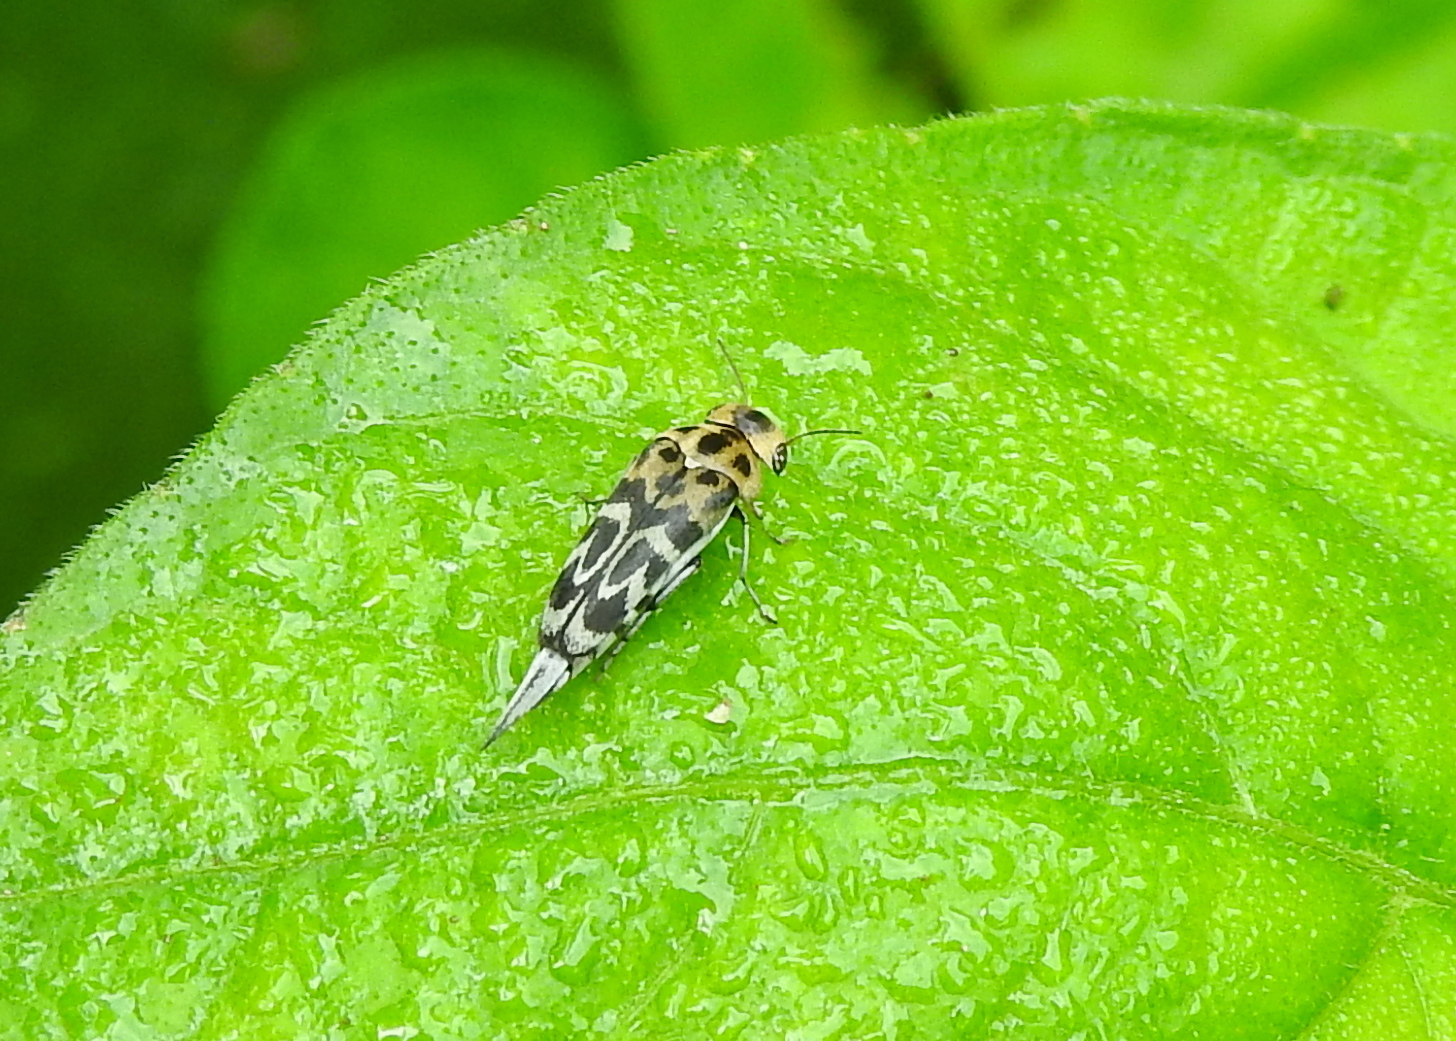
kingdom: Animalia
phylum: Arthropoda
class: Insecta
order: Coleoptera
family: Mordellidae
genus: Glipa
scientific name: Glipa
